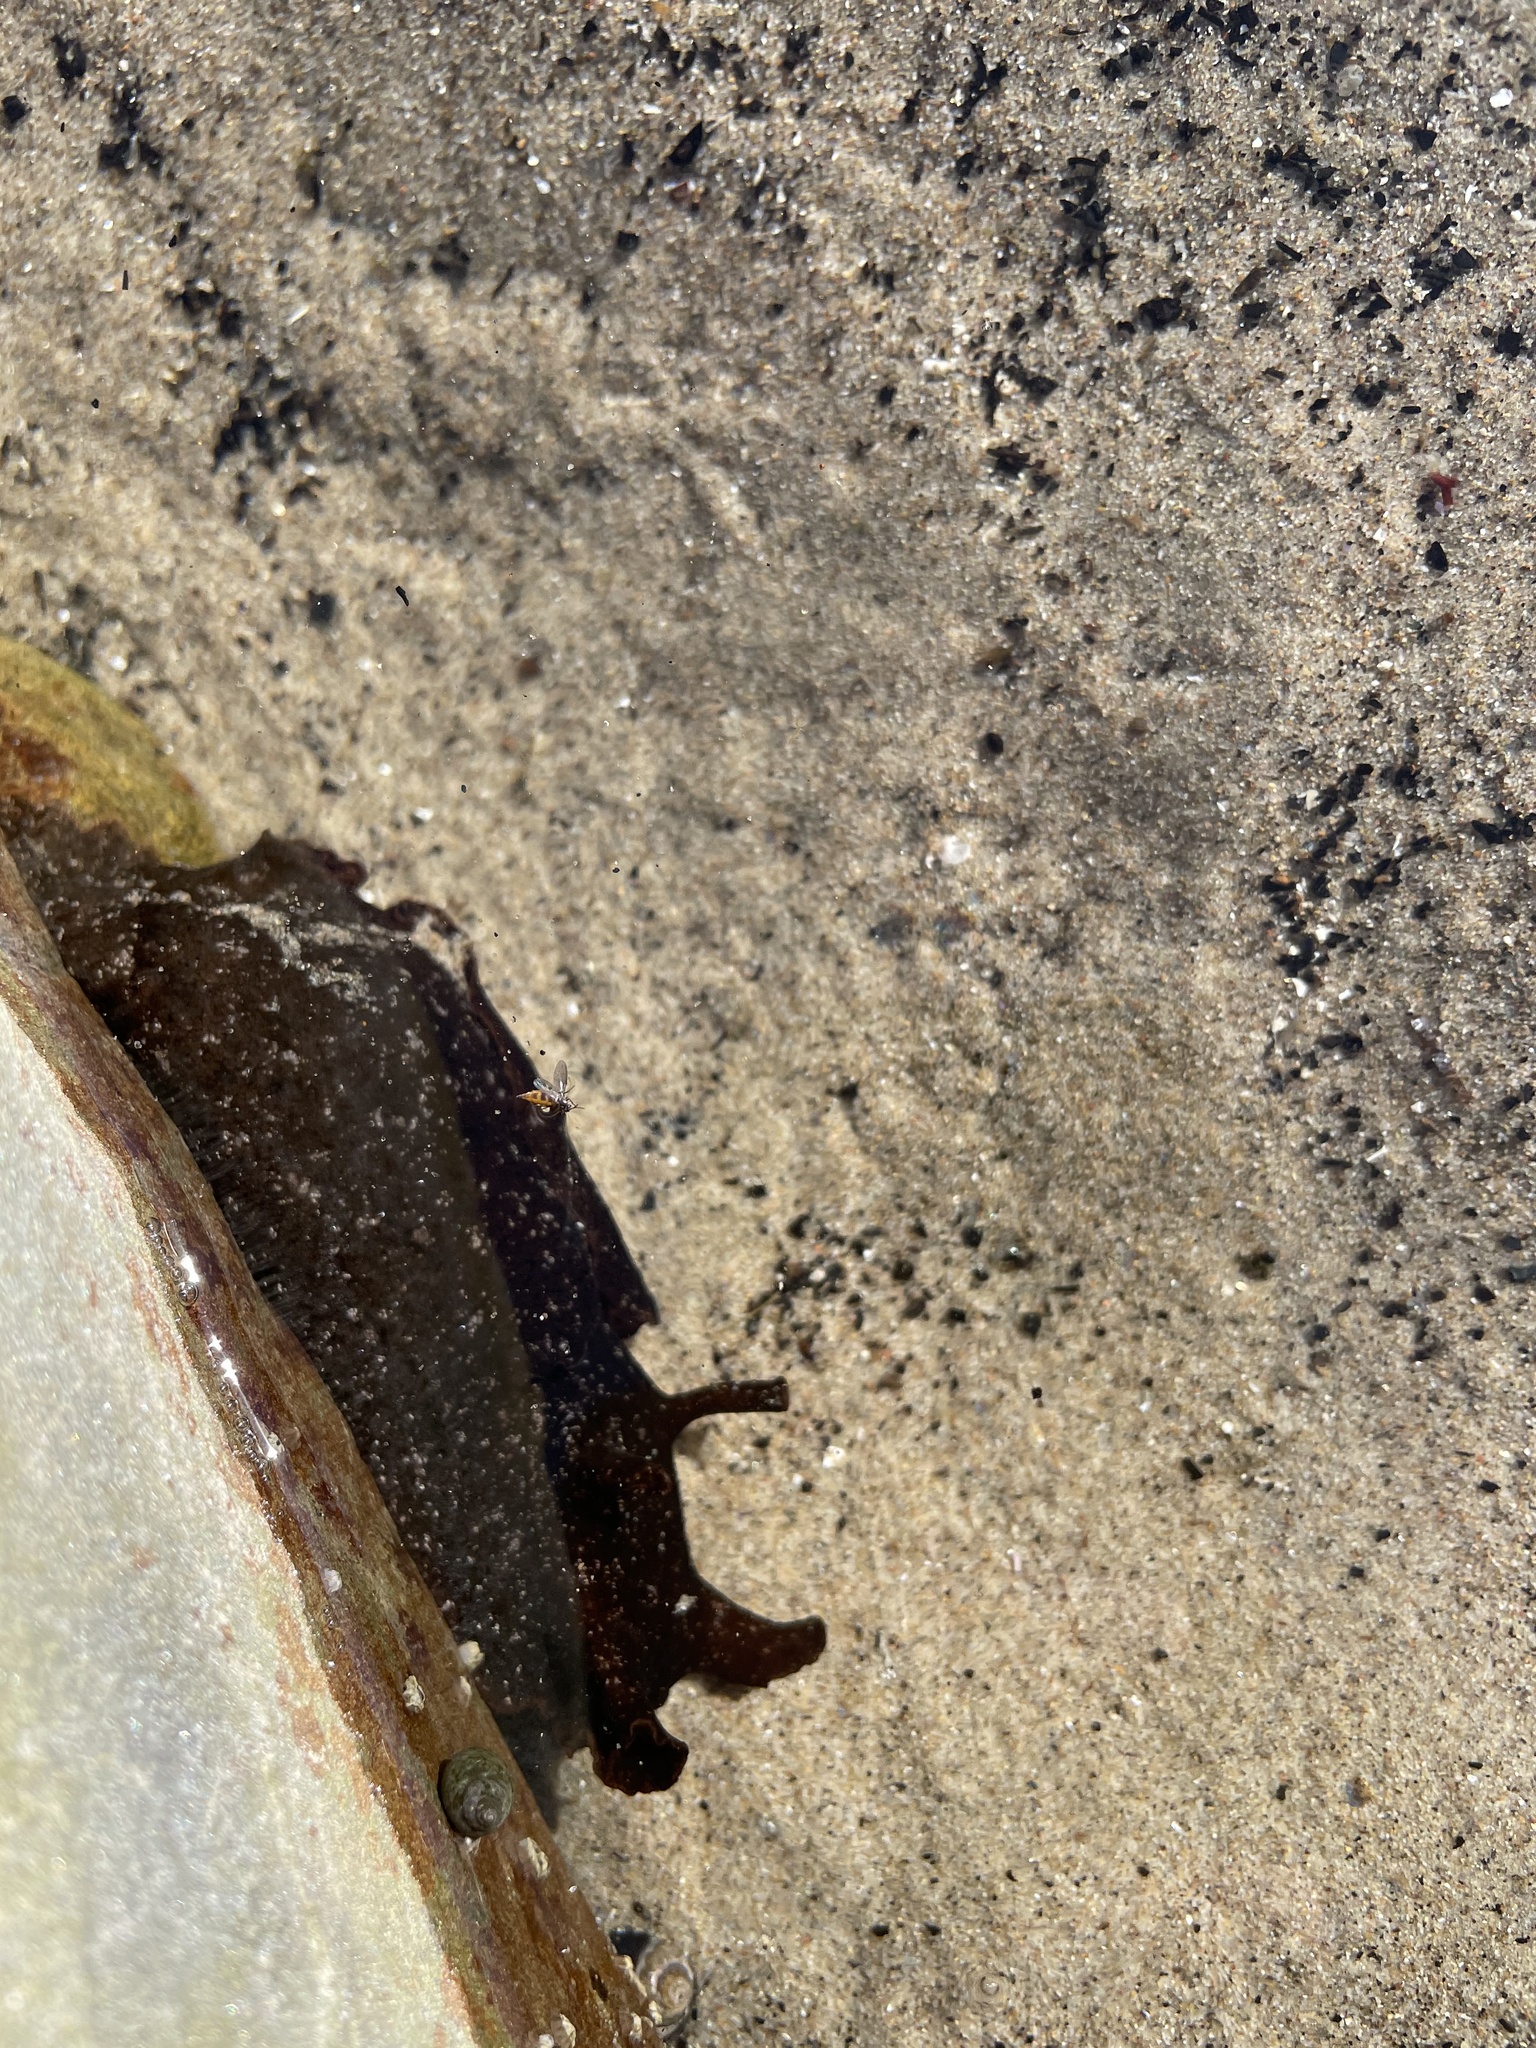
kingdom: Animalia
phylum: Mollusca
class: Gastropoda
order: Aplysiida
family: Aplysiidae
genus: Aplysia
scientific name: Aplysia vaccaria
